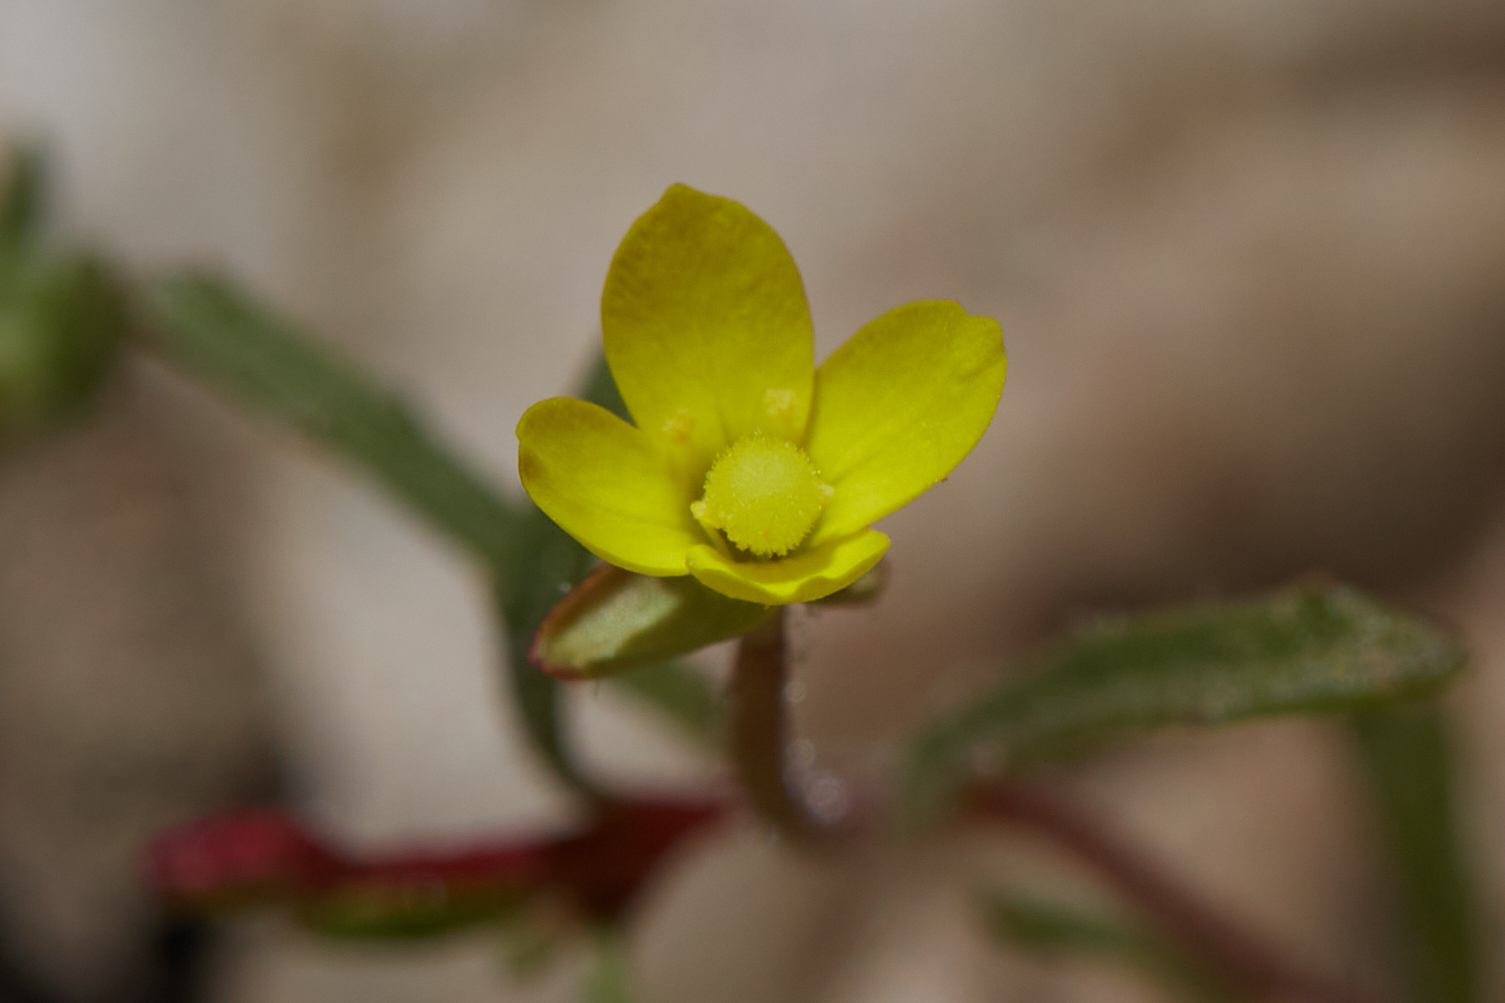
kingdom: Plantae
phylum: Tracheophyta
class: Magnoliopsida
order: Myrtales
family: Onagraceae
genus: Camissonia
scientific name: Camissonia contorta
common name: Contorted suncup
